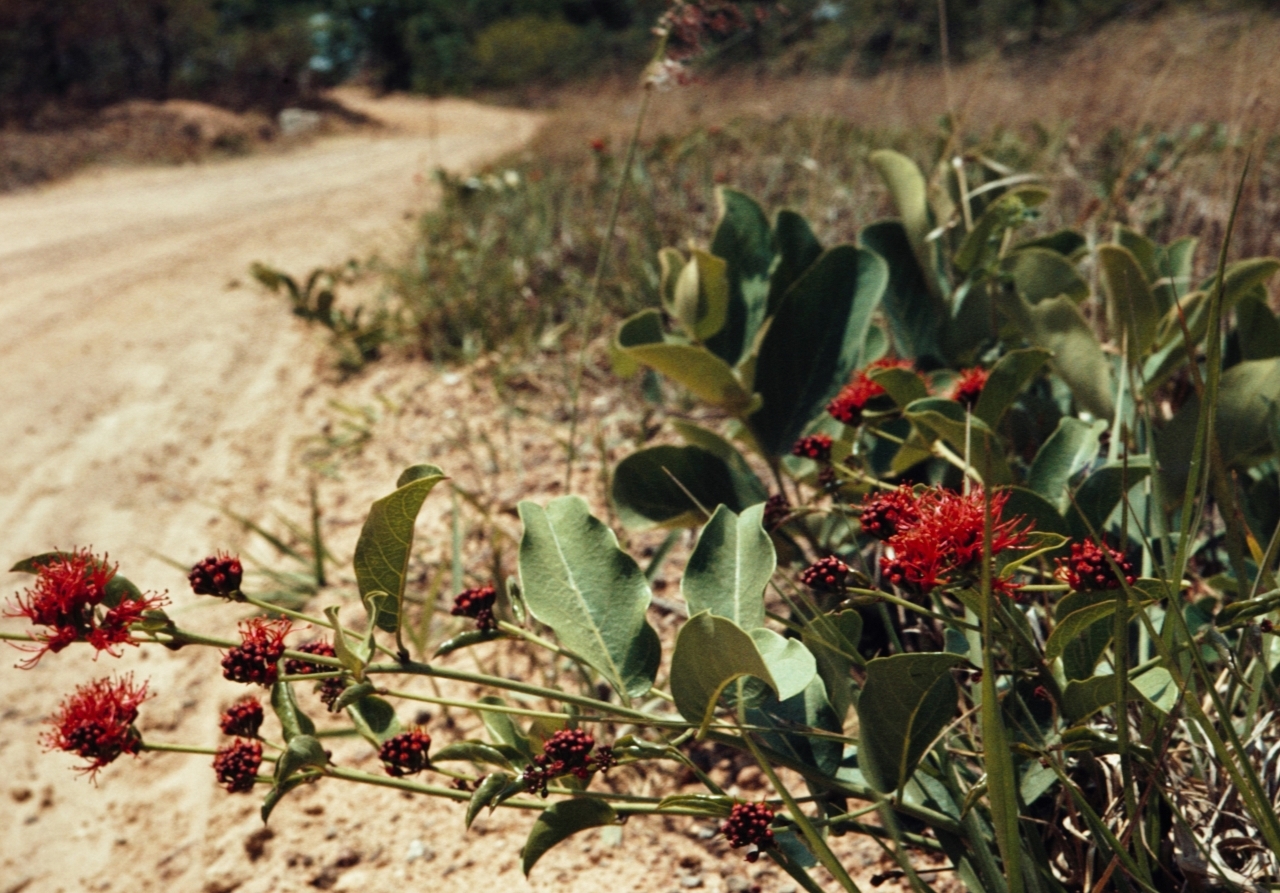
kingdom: Plantae
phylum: Tracheophyta
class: Magnoliopsida
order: Myrtales
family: Combretaceae
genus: Combretum
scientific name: Combretum oatesii
